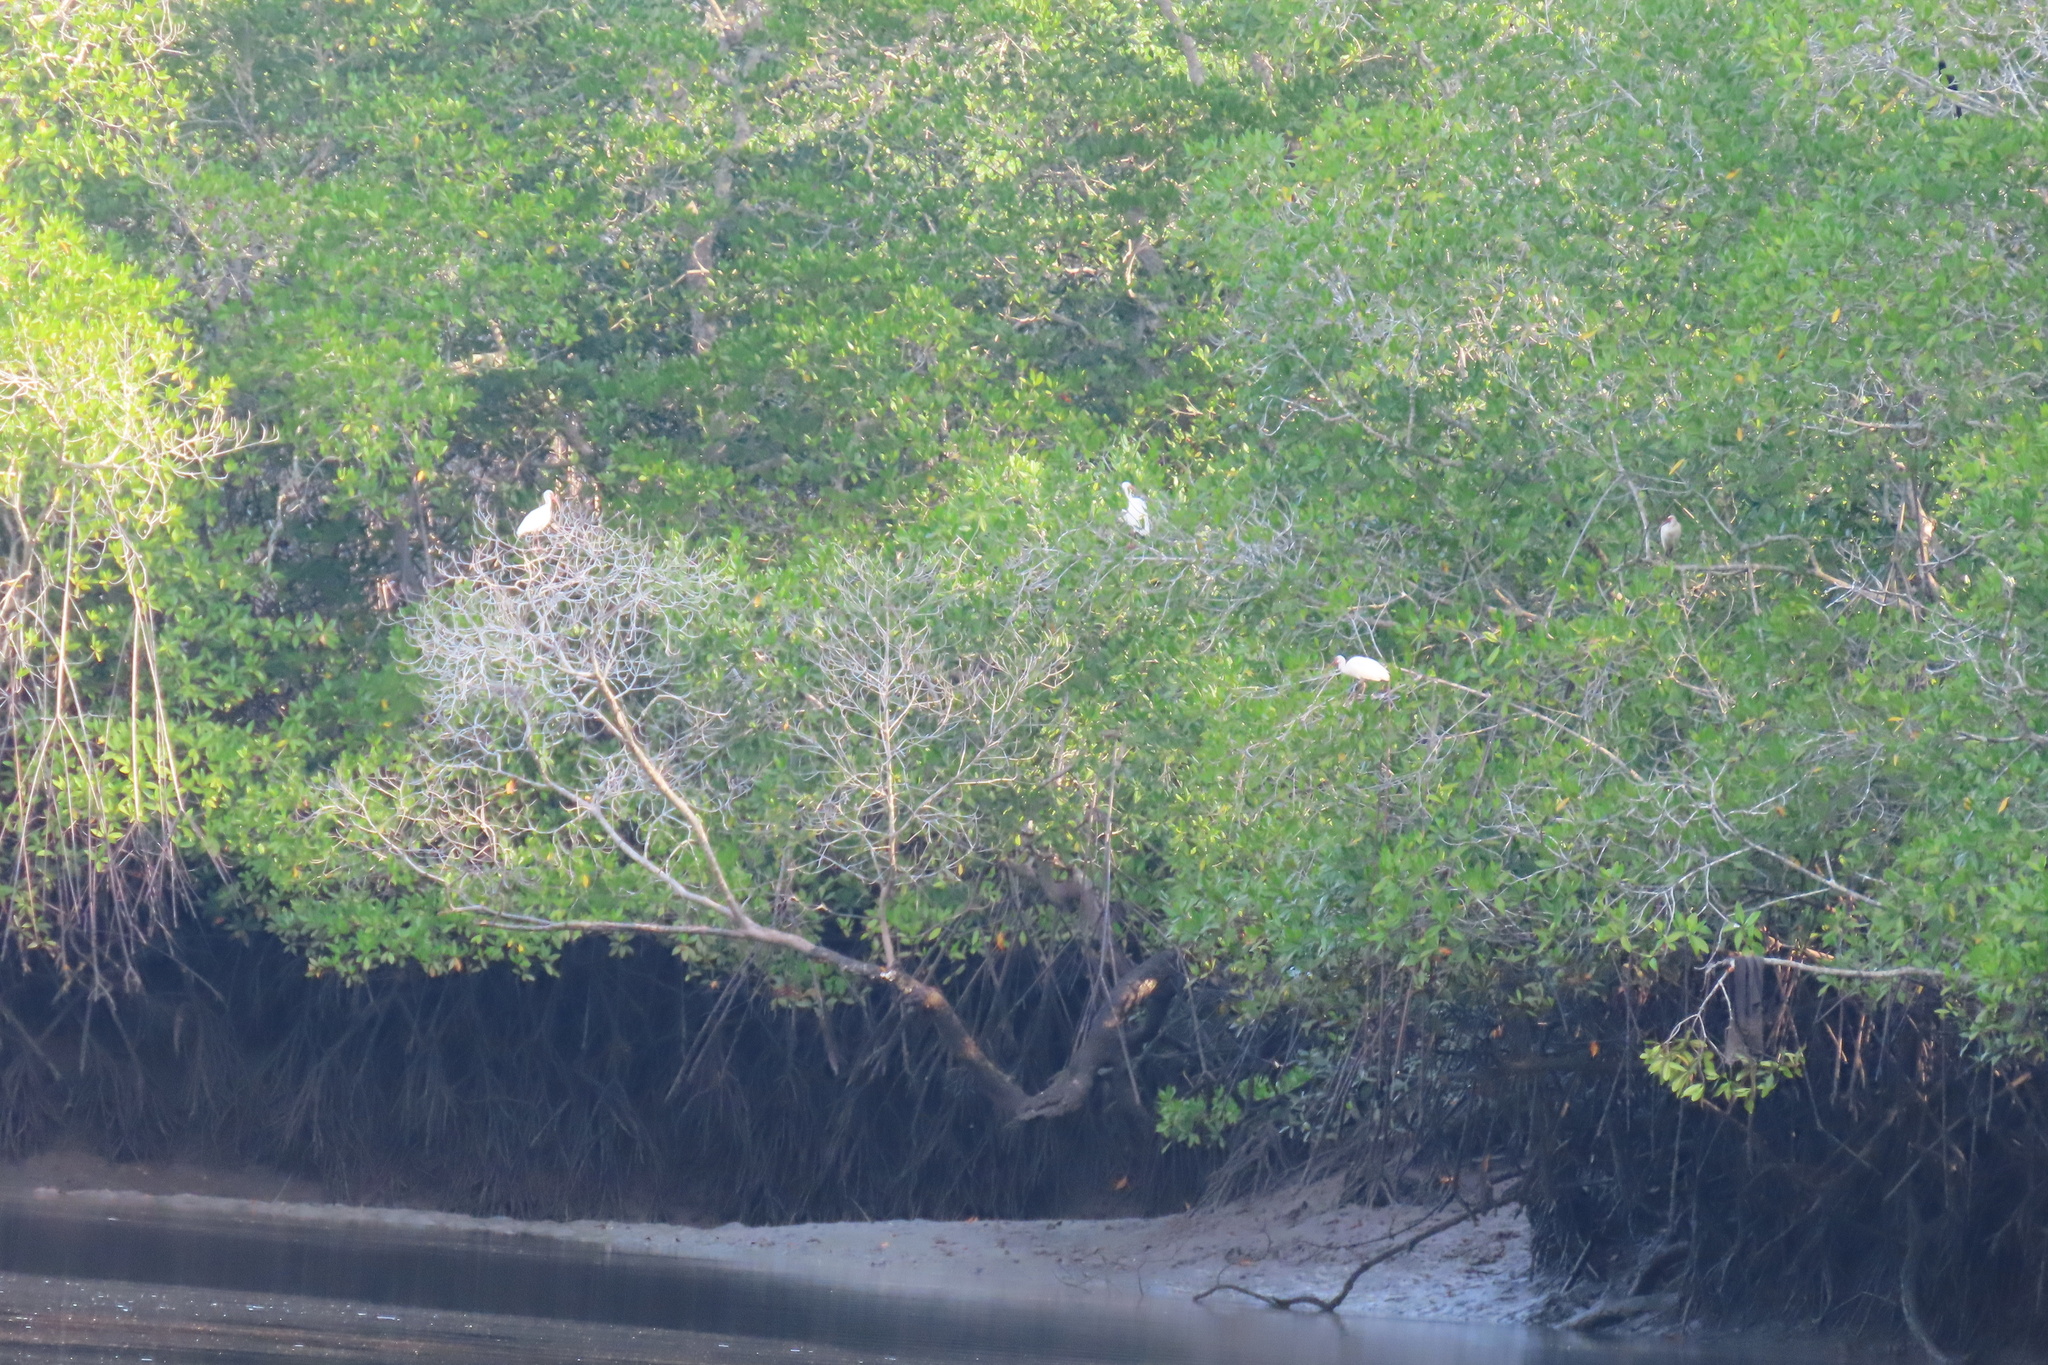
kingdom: Animalia
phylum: Chordata
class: Aves
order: Pelecaniformes
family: Threskiornithidae
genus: Eudocimus
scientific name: Eudocimus albus
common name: White ibis
